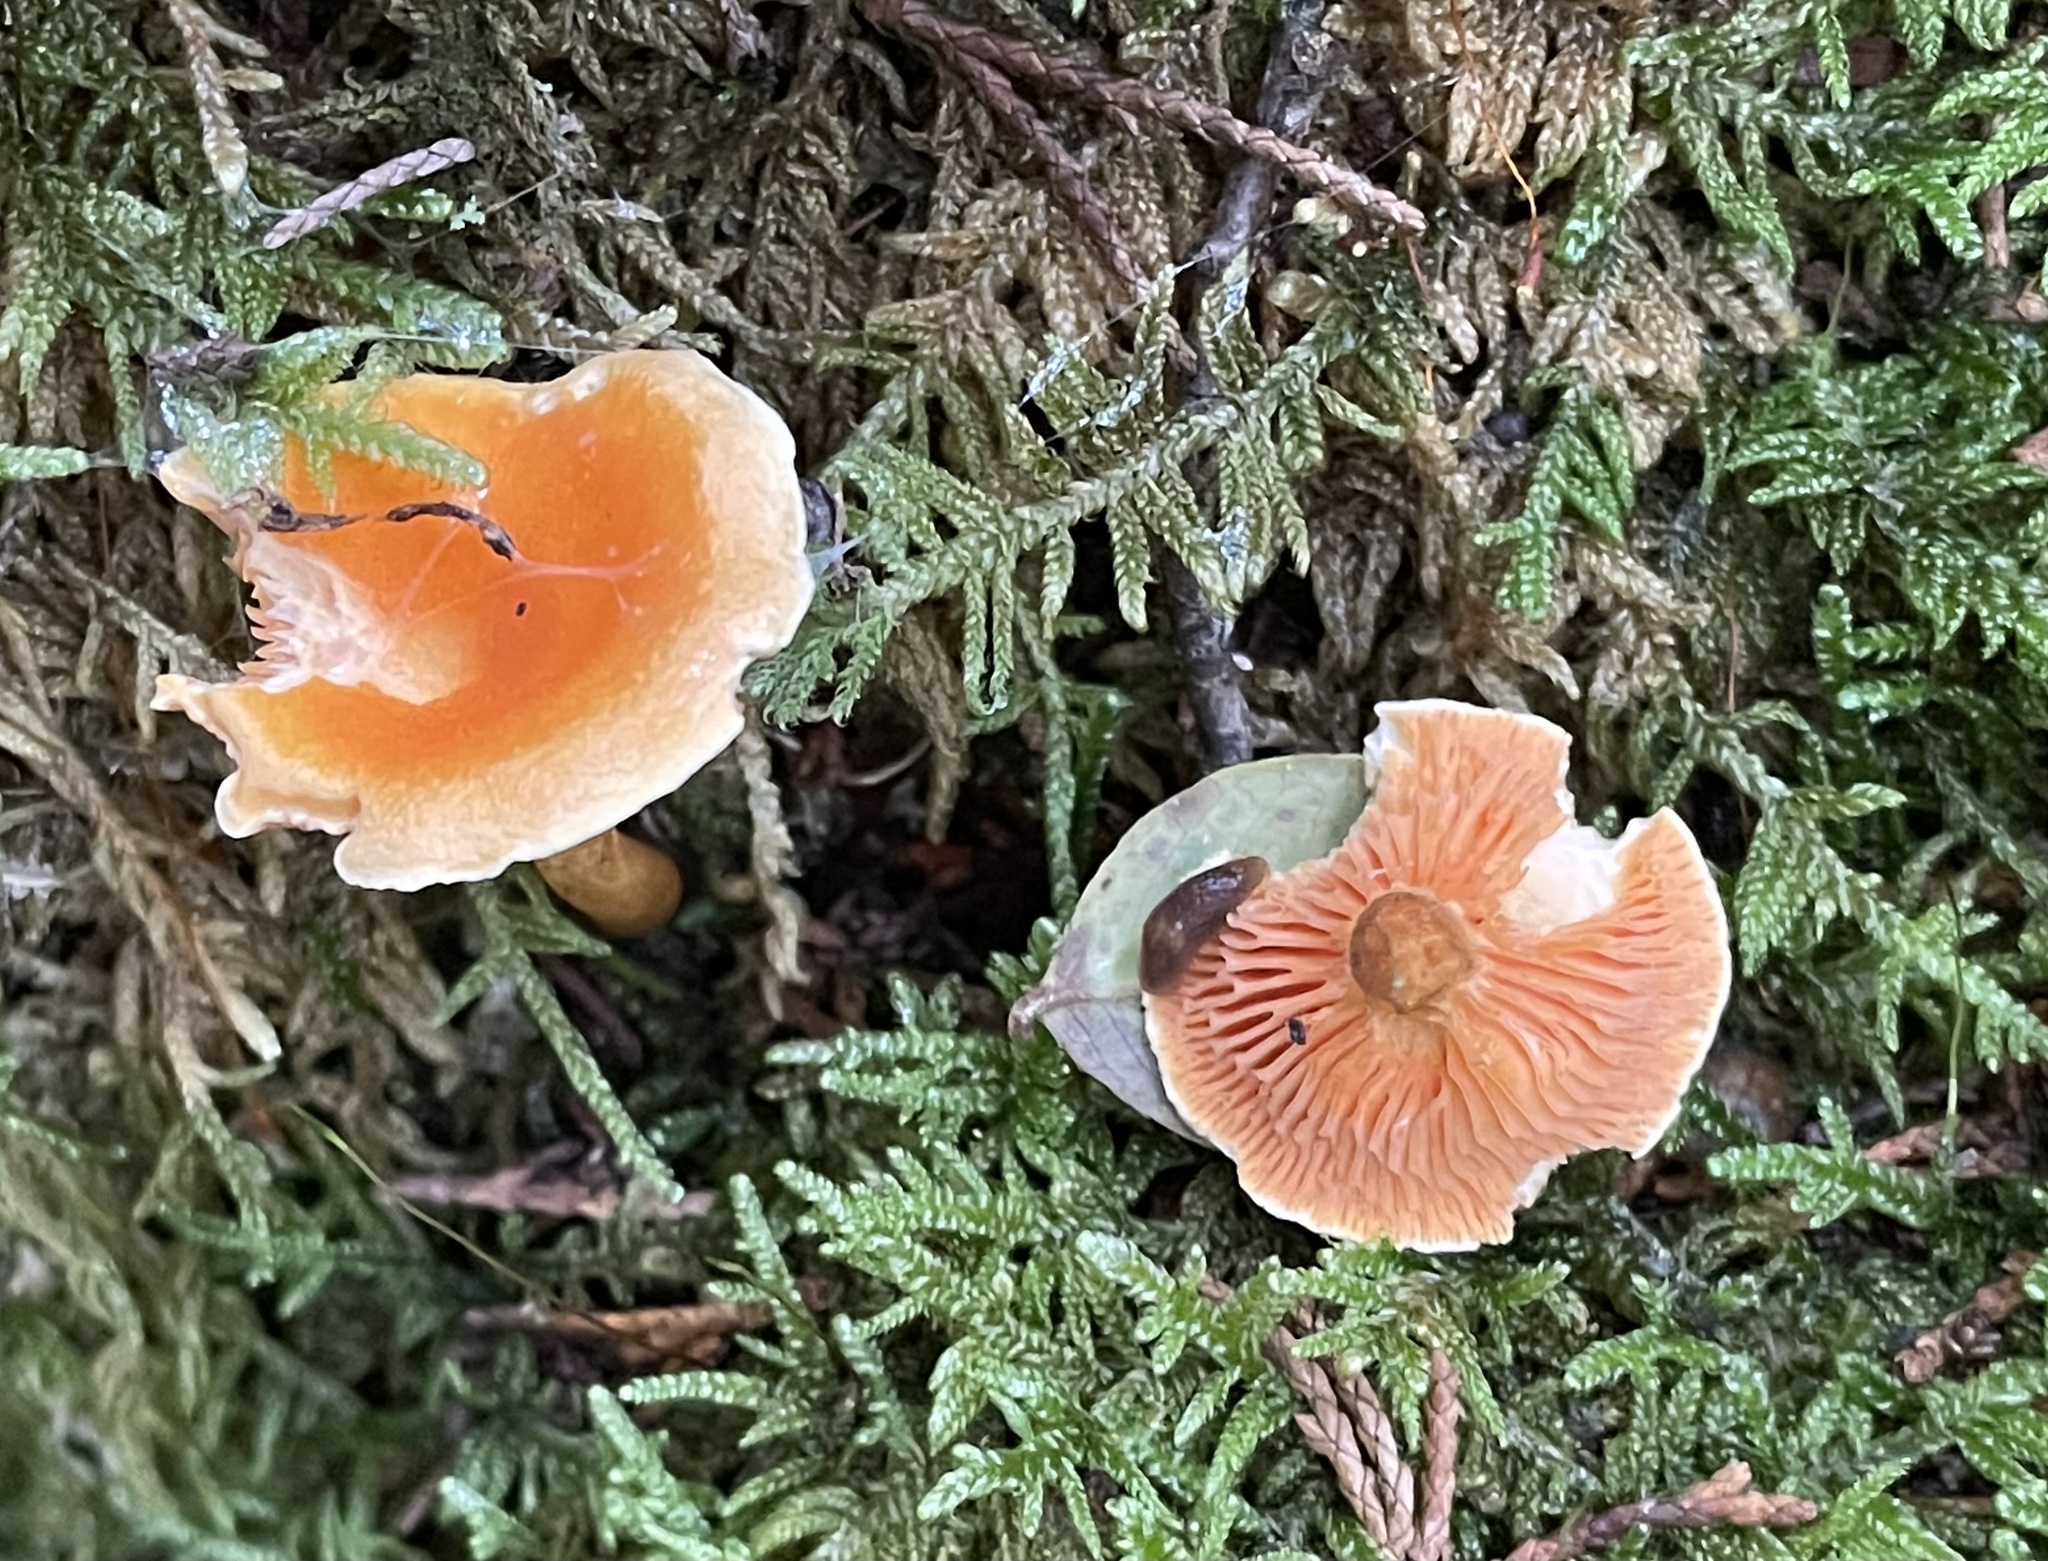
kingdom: Fungi
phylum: Basidiomycota
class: Agaricomycetes
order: Boletales
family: Hygrophoropsidaceae
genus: Hygrophoropsis
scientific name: Hygrophoropsis aurantiaca
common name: False chanterelle
